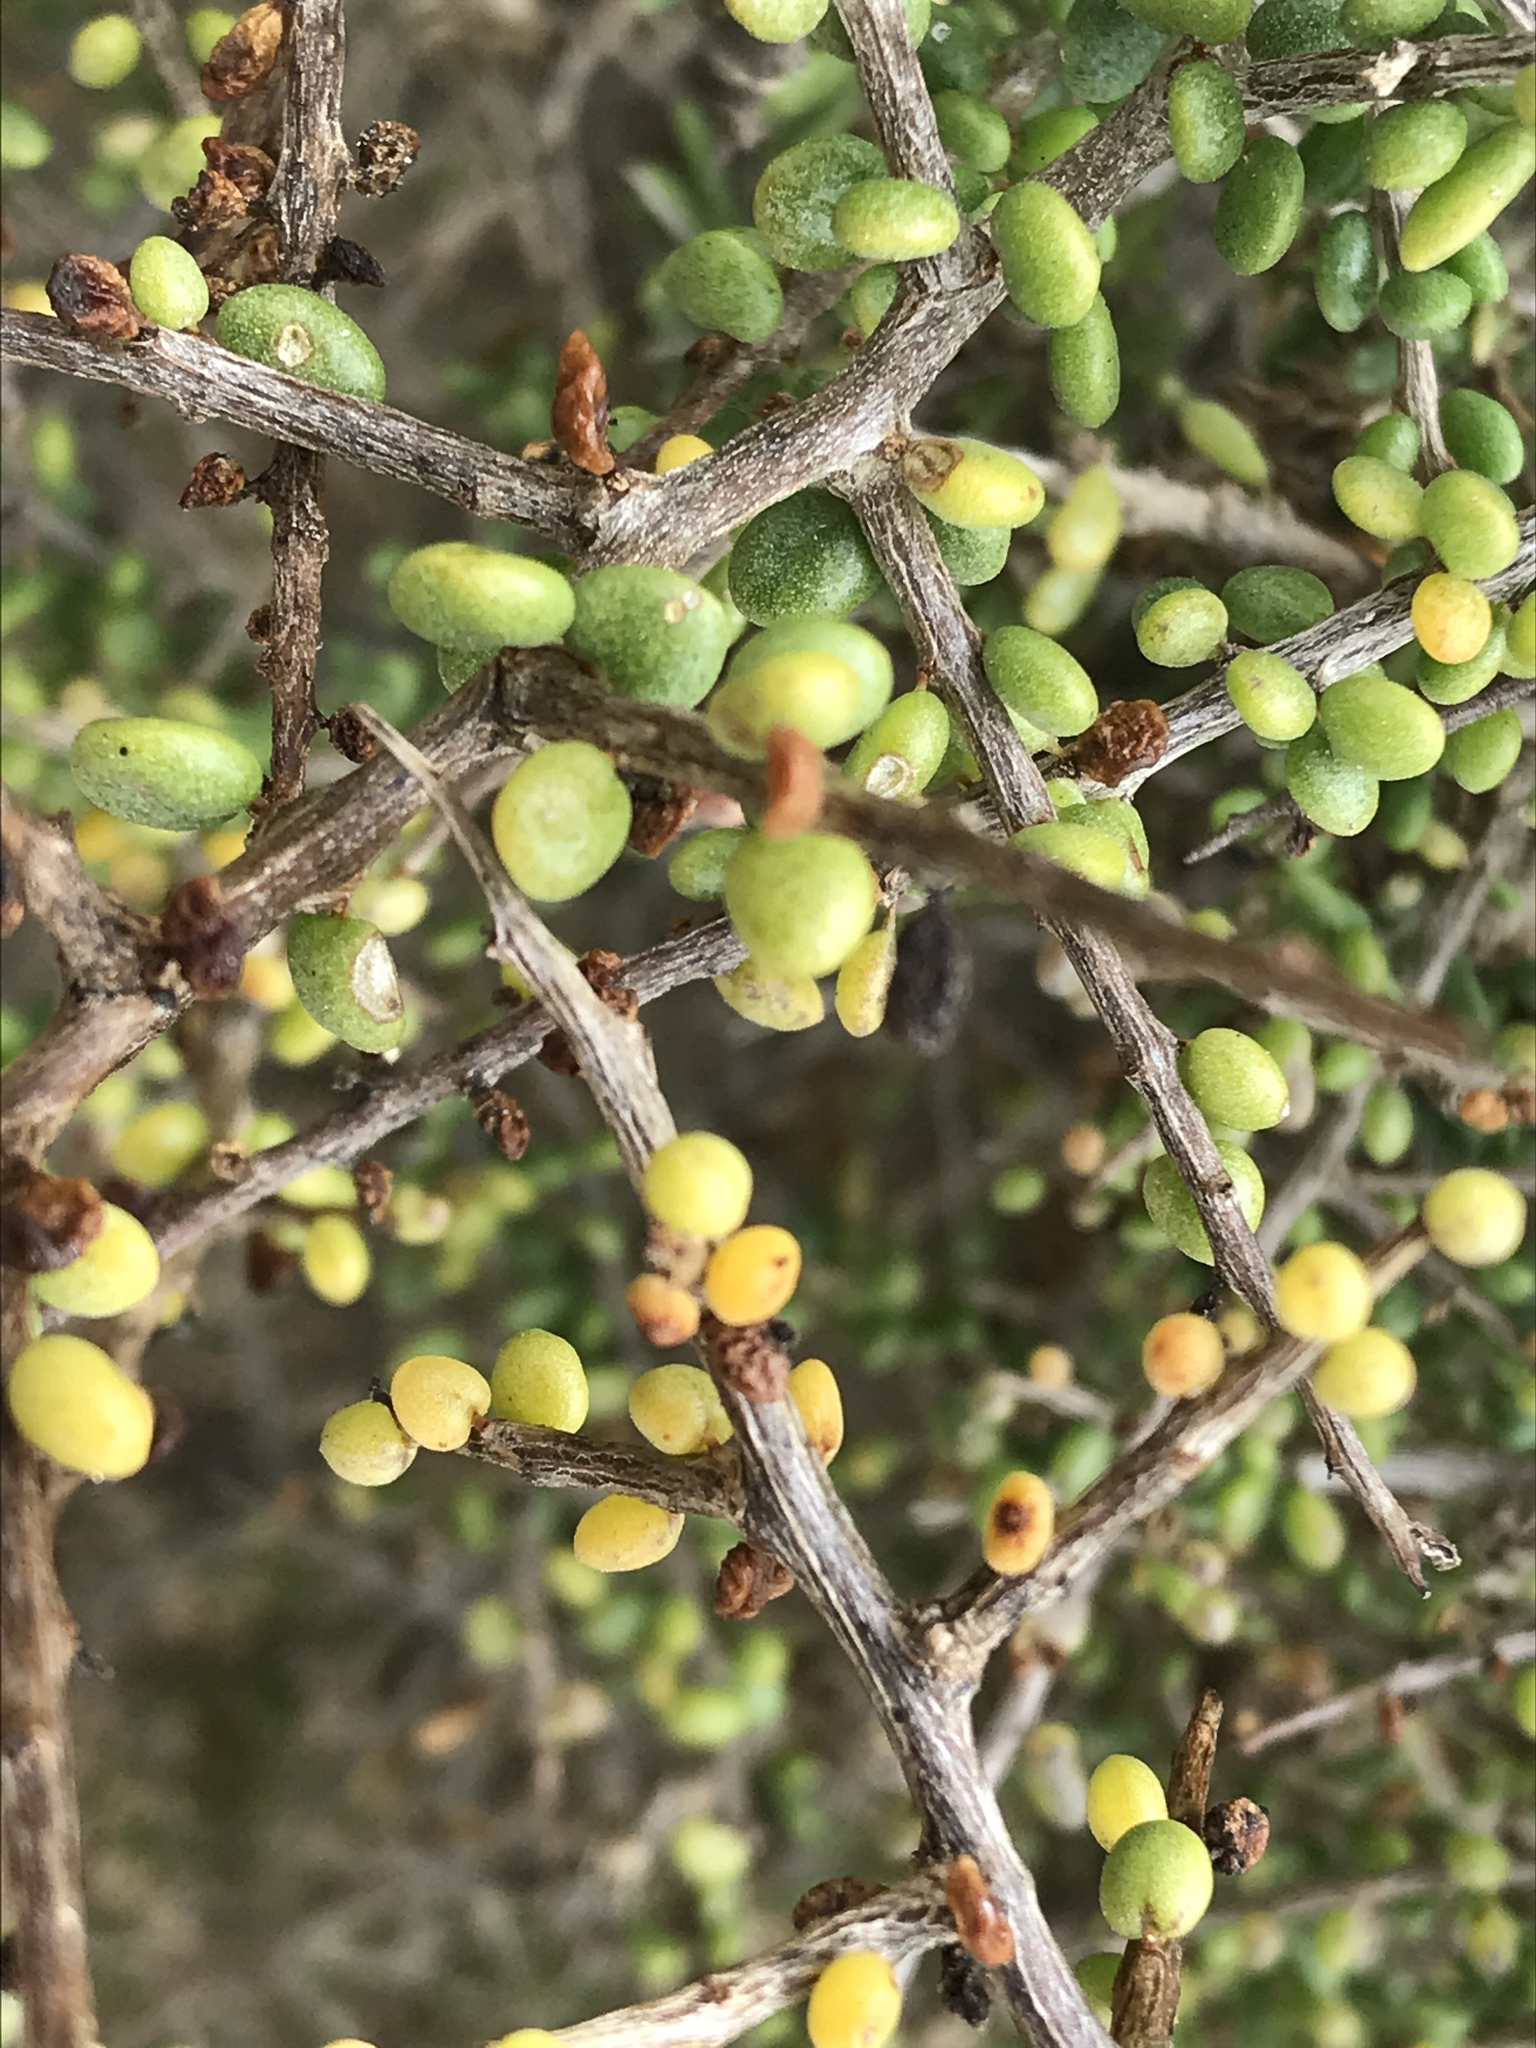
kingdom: Plantae
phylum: Tracheophyta
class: Magnoliopsida
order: Solanales
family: Solanaceae
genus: Lycium
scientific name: Lycium californicum
